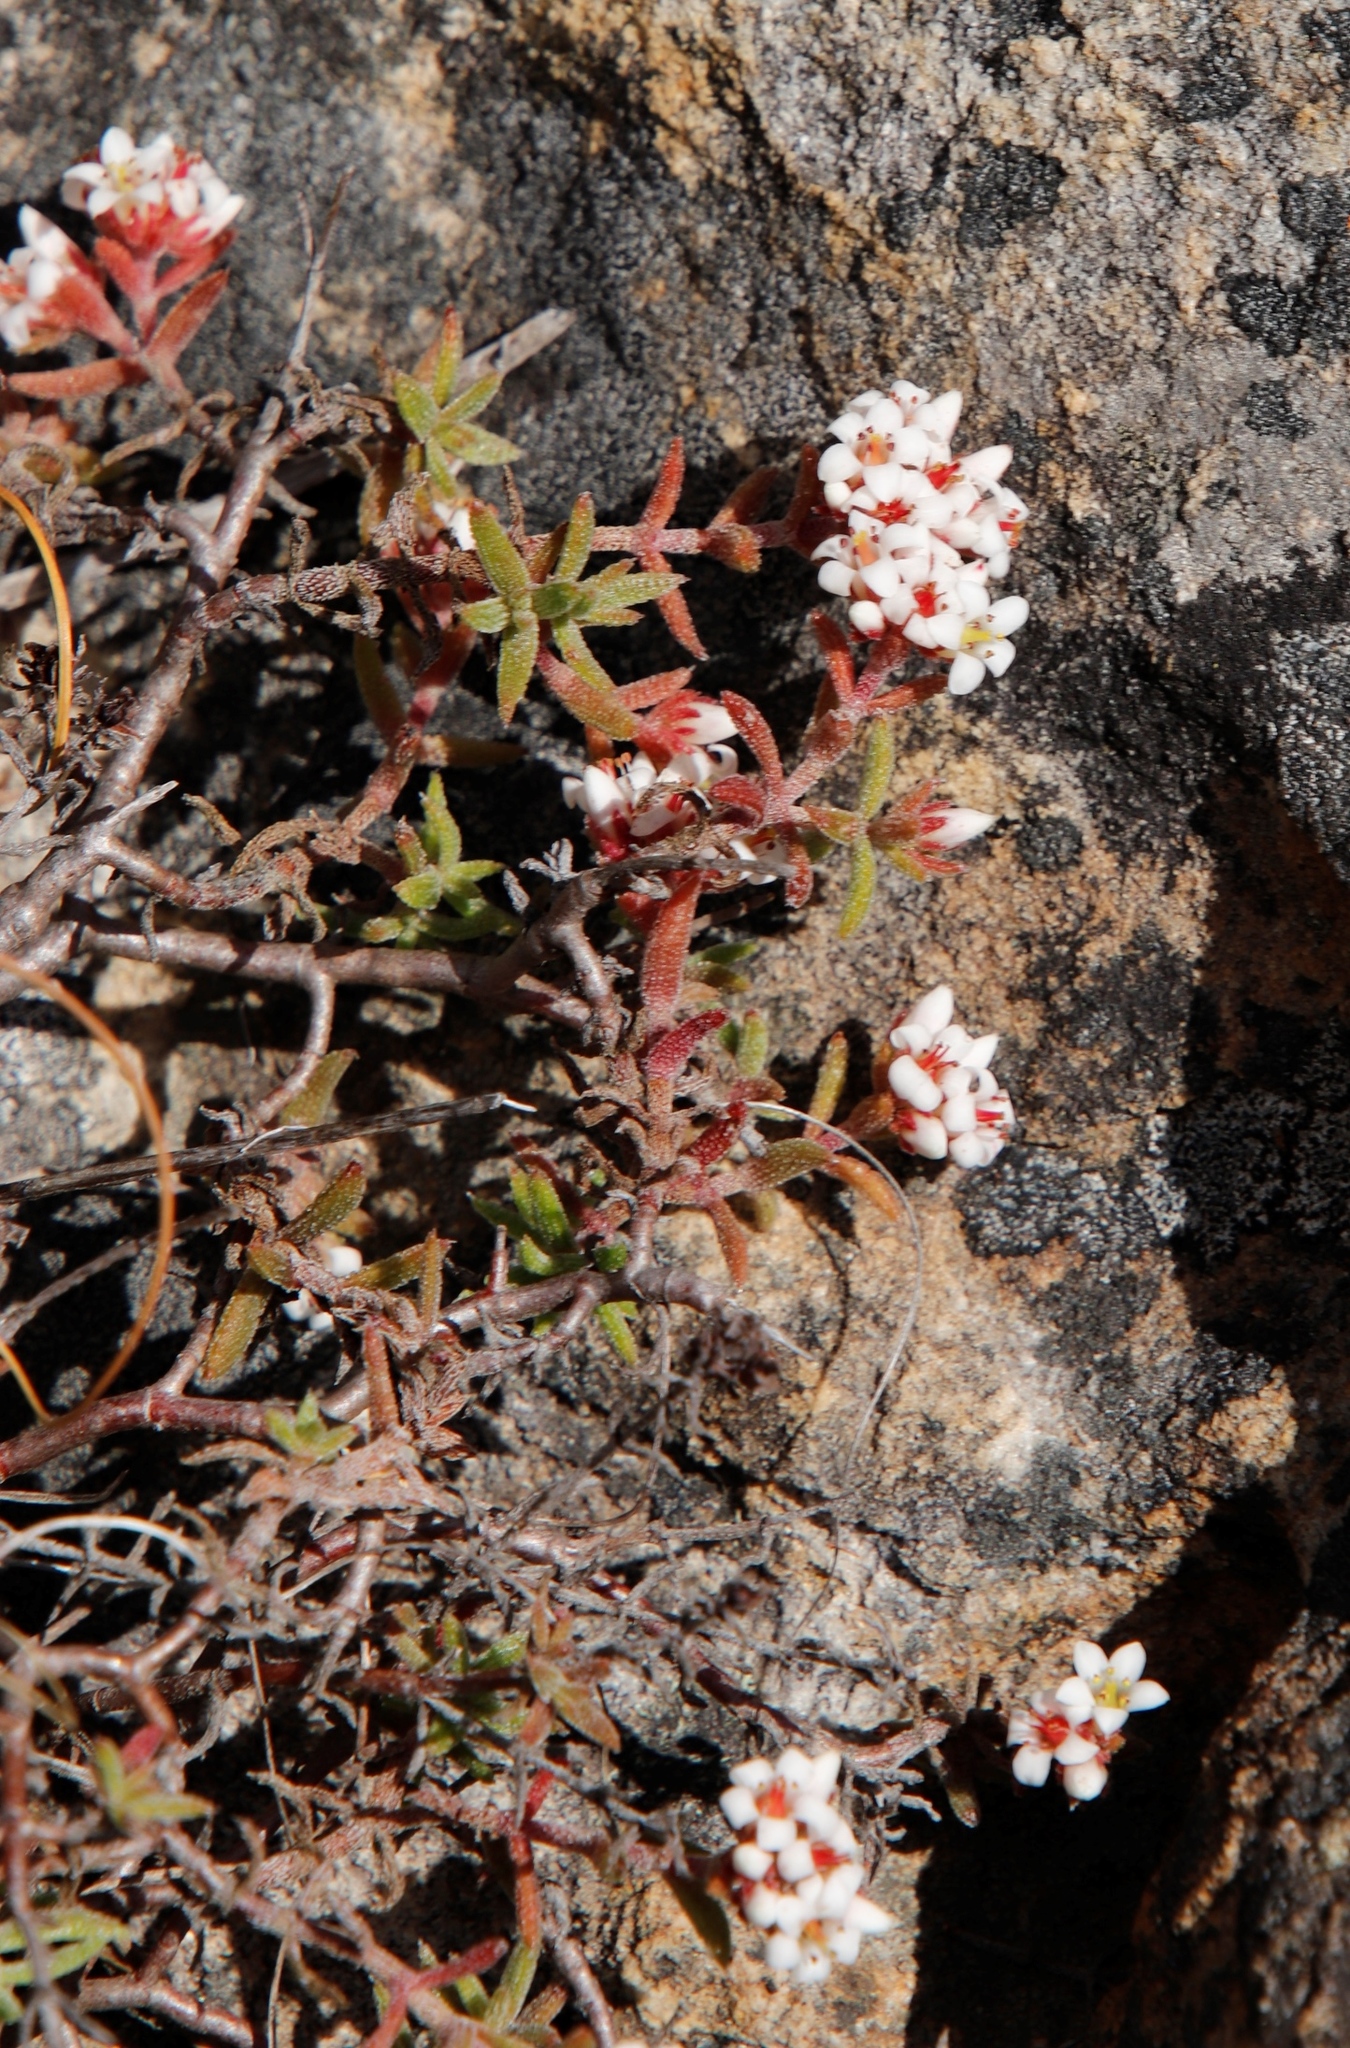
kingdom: Plantae
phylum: Tracheophyta
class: Magnoliopsida
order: Saxifragales
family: Crassulaceae
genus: Crassula
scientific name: Crassula pruinosa
